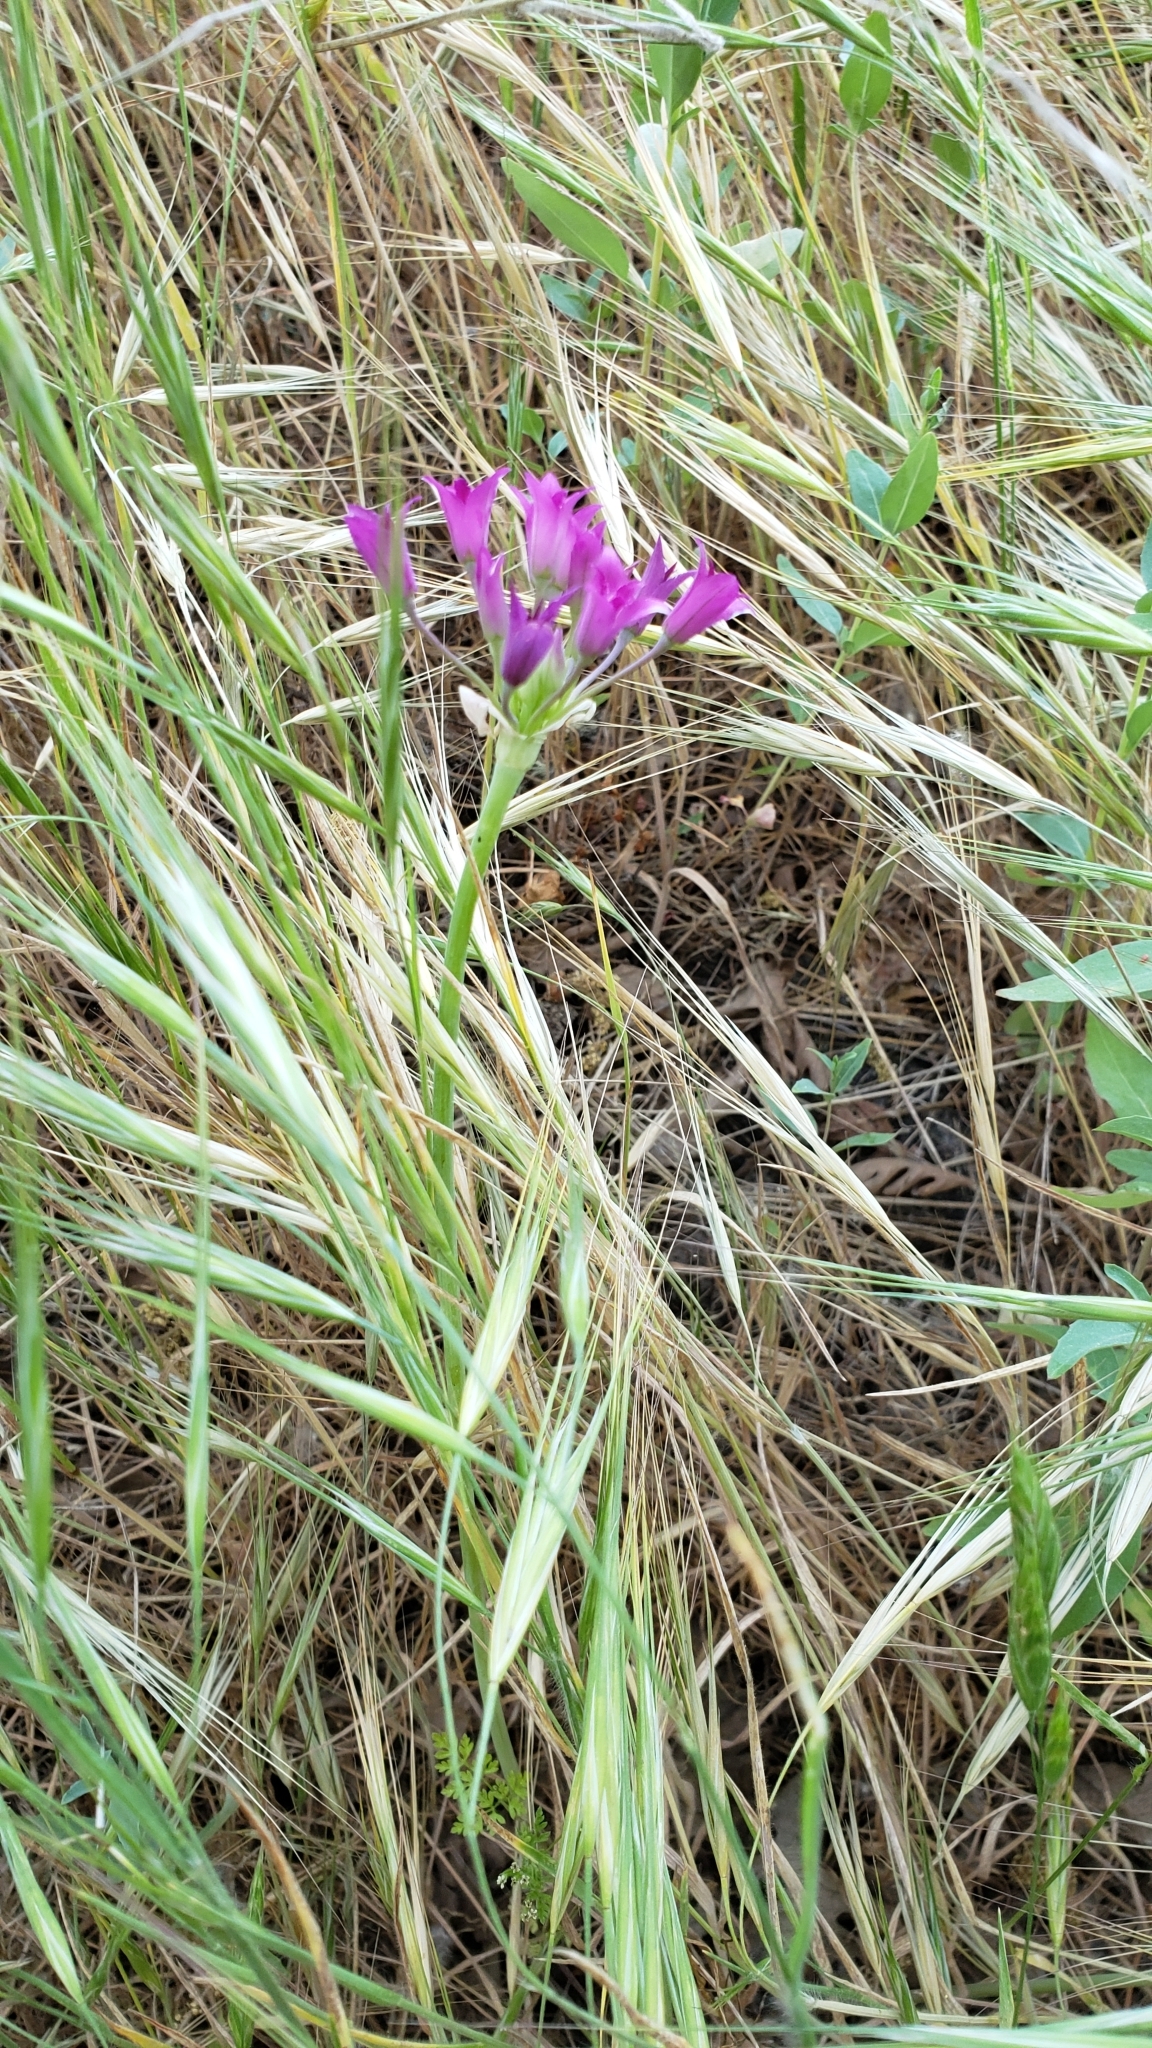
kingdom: Plantae
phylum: Tracheophyta
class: Liliopsida
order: Asparagales
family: Amaryllidaceae
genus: Allium
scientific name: Allium crispum
